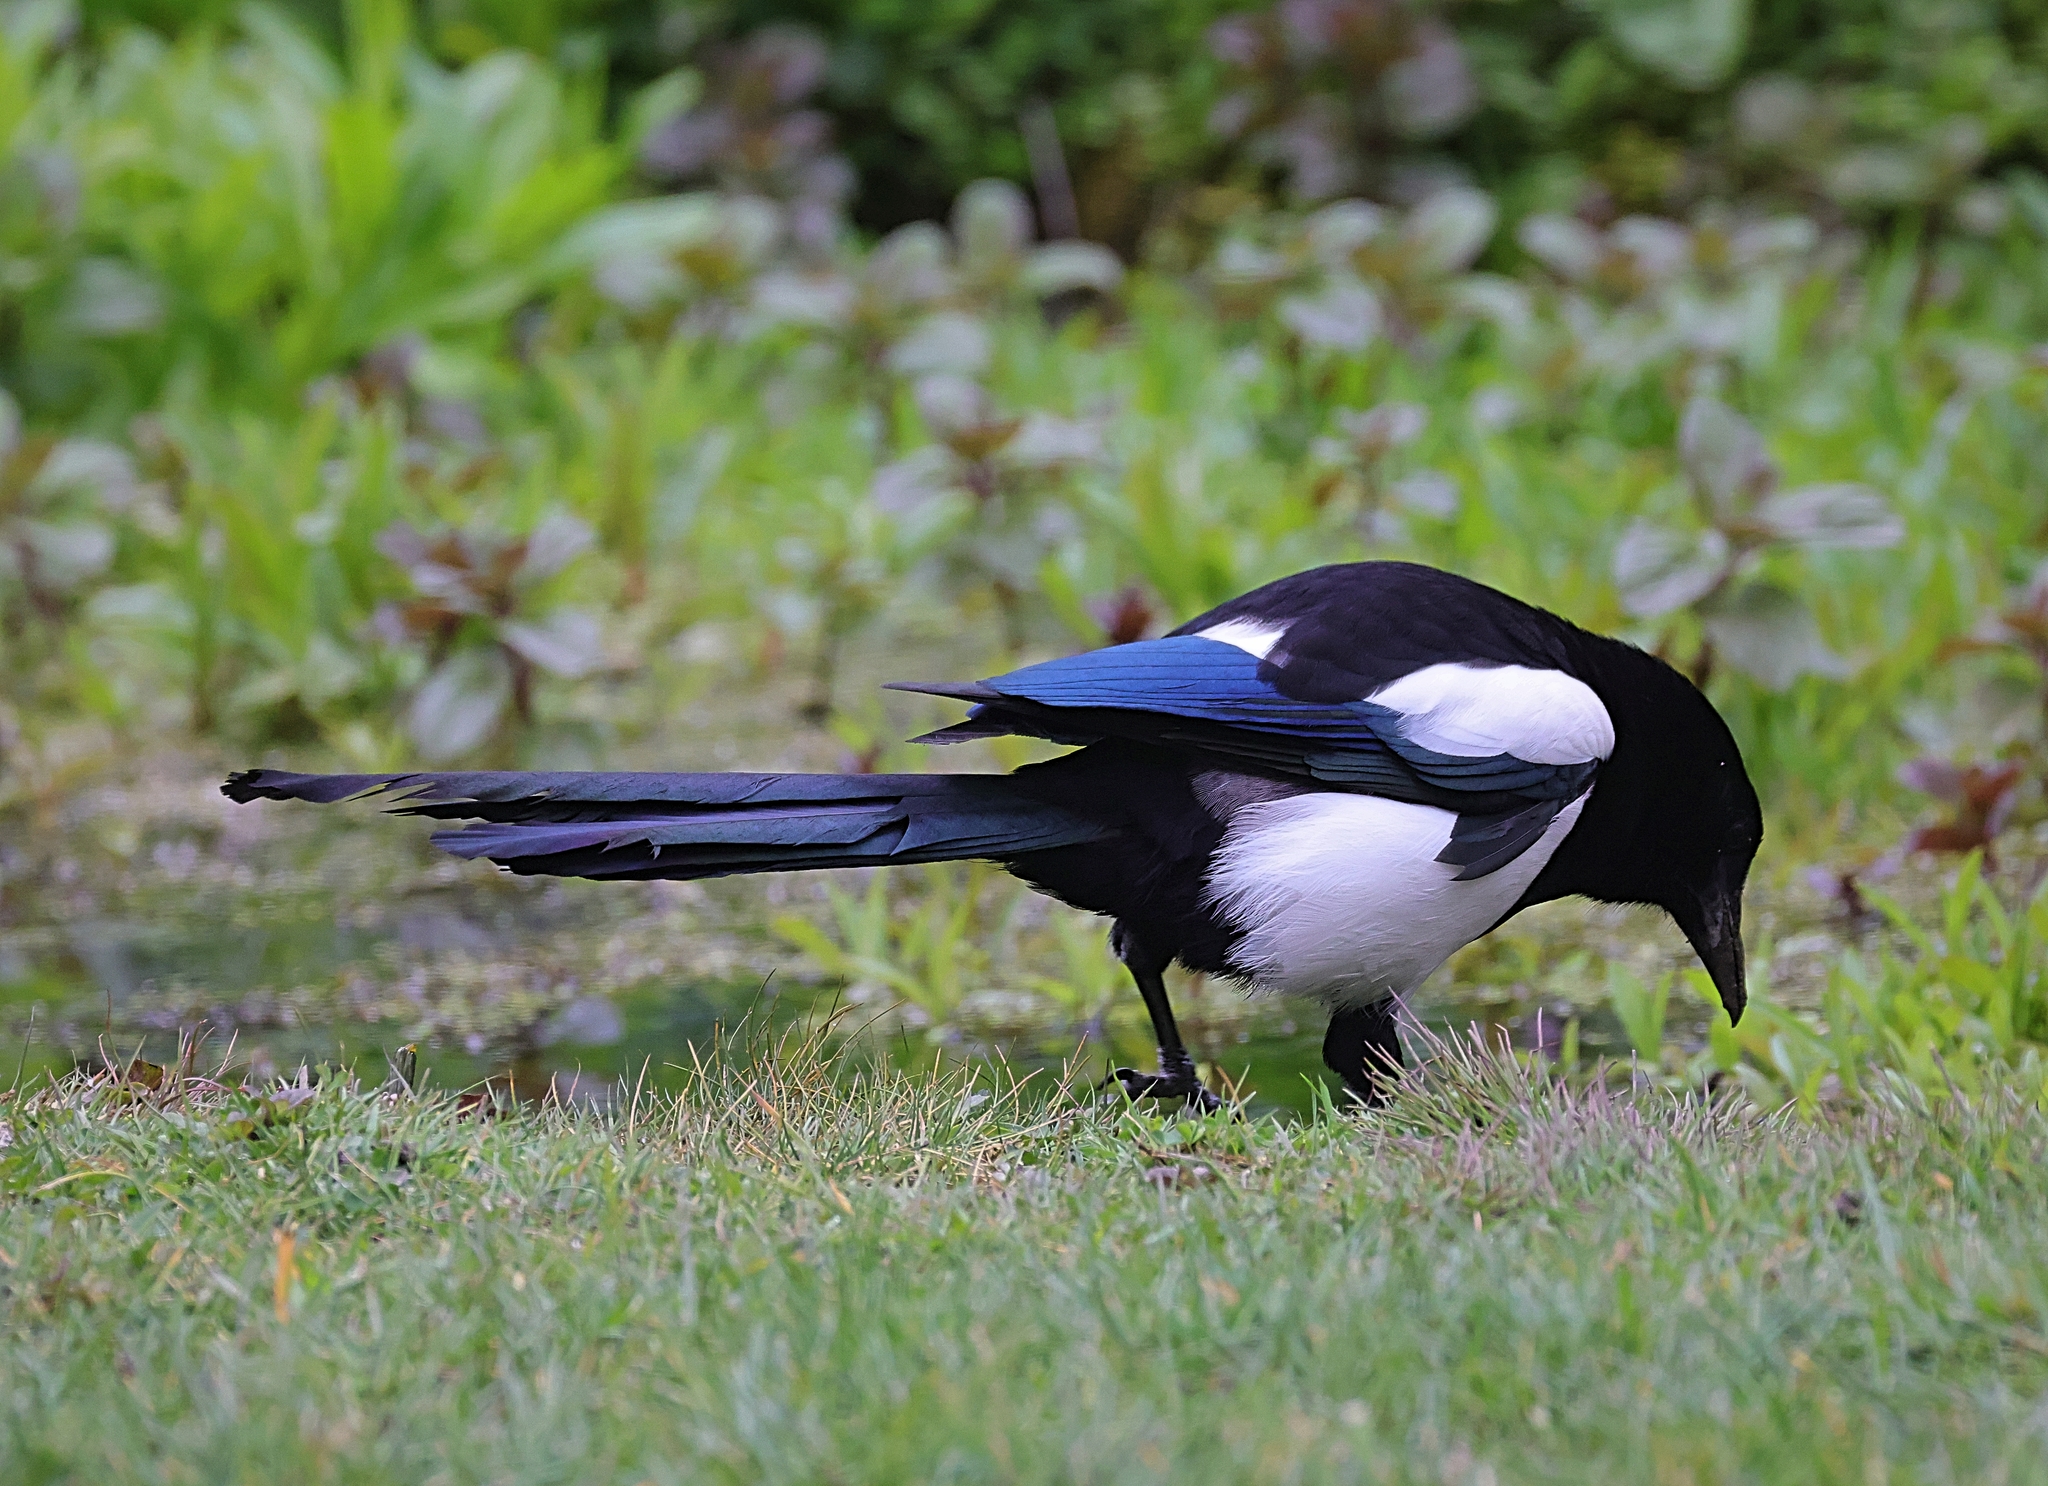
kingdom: Animalia
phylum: Chordata
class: Aves
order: Passeriformes
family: Corvidae
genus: Pica
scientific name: Pica pica
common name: Eurasian magpie
